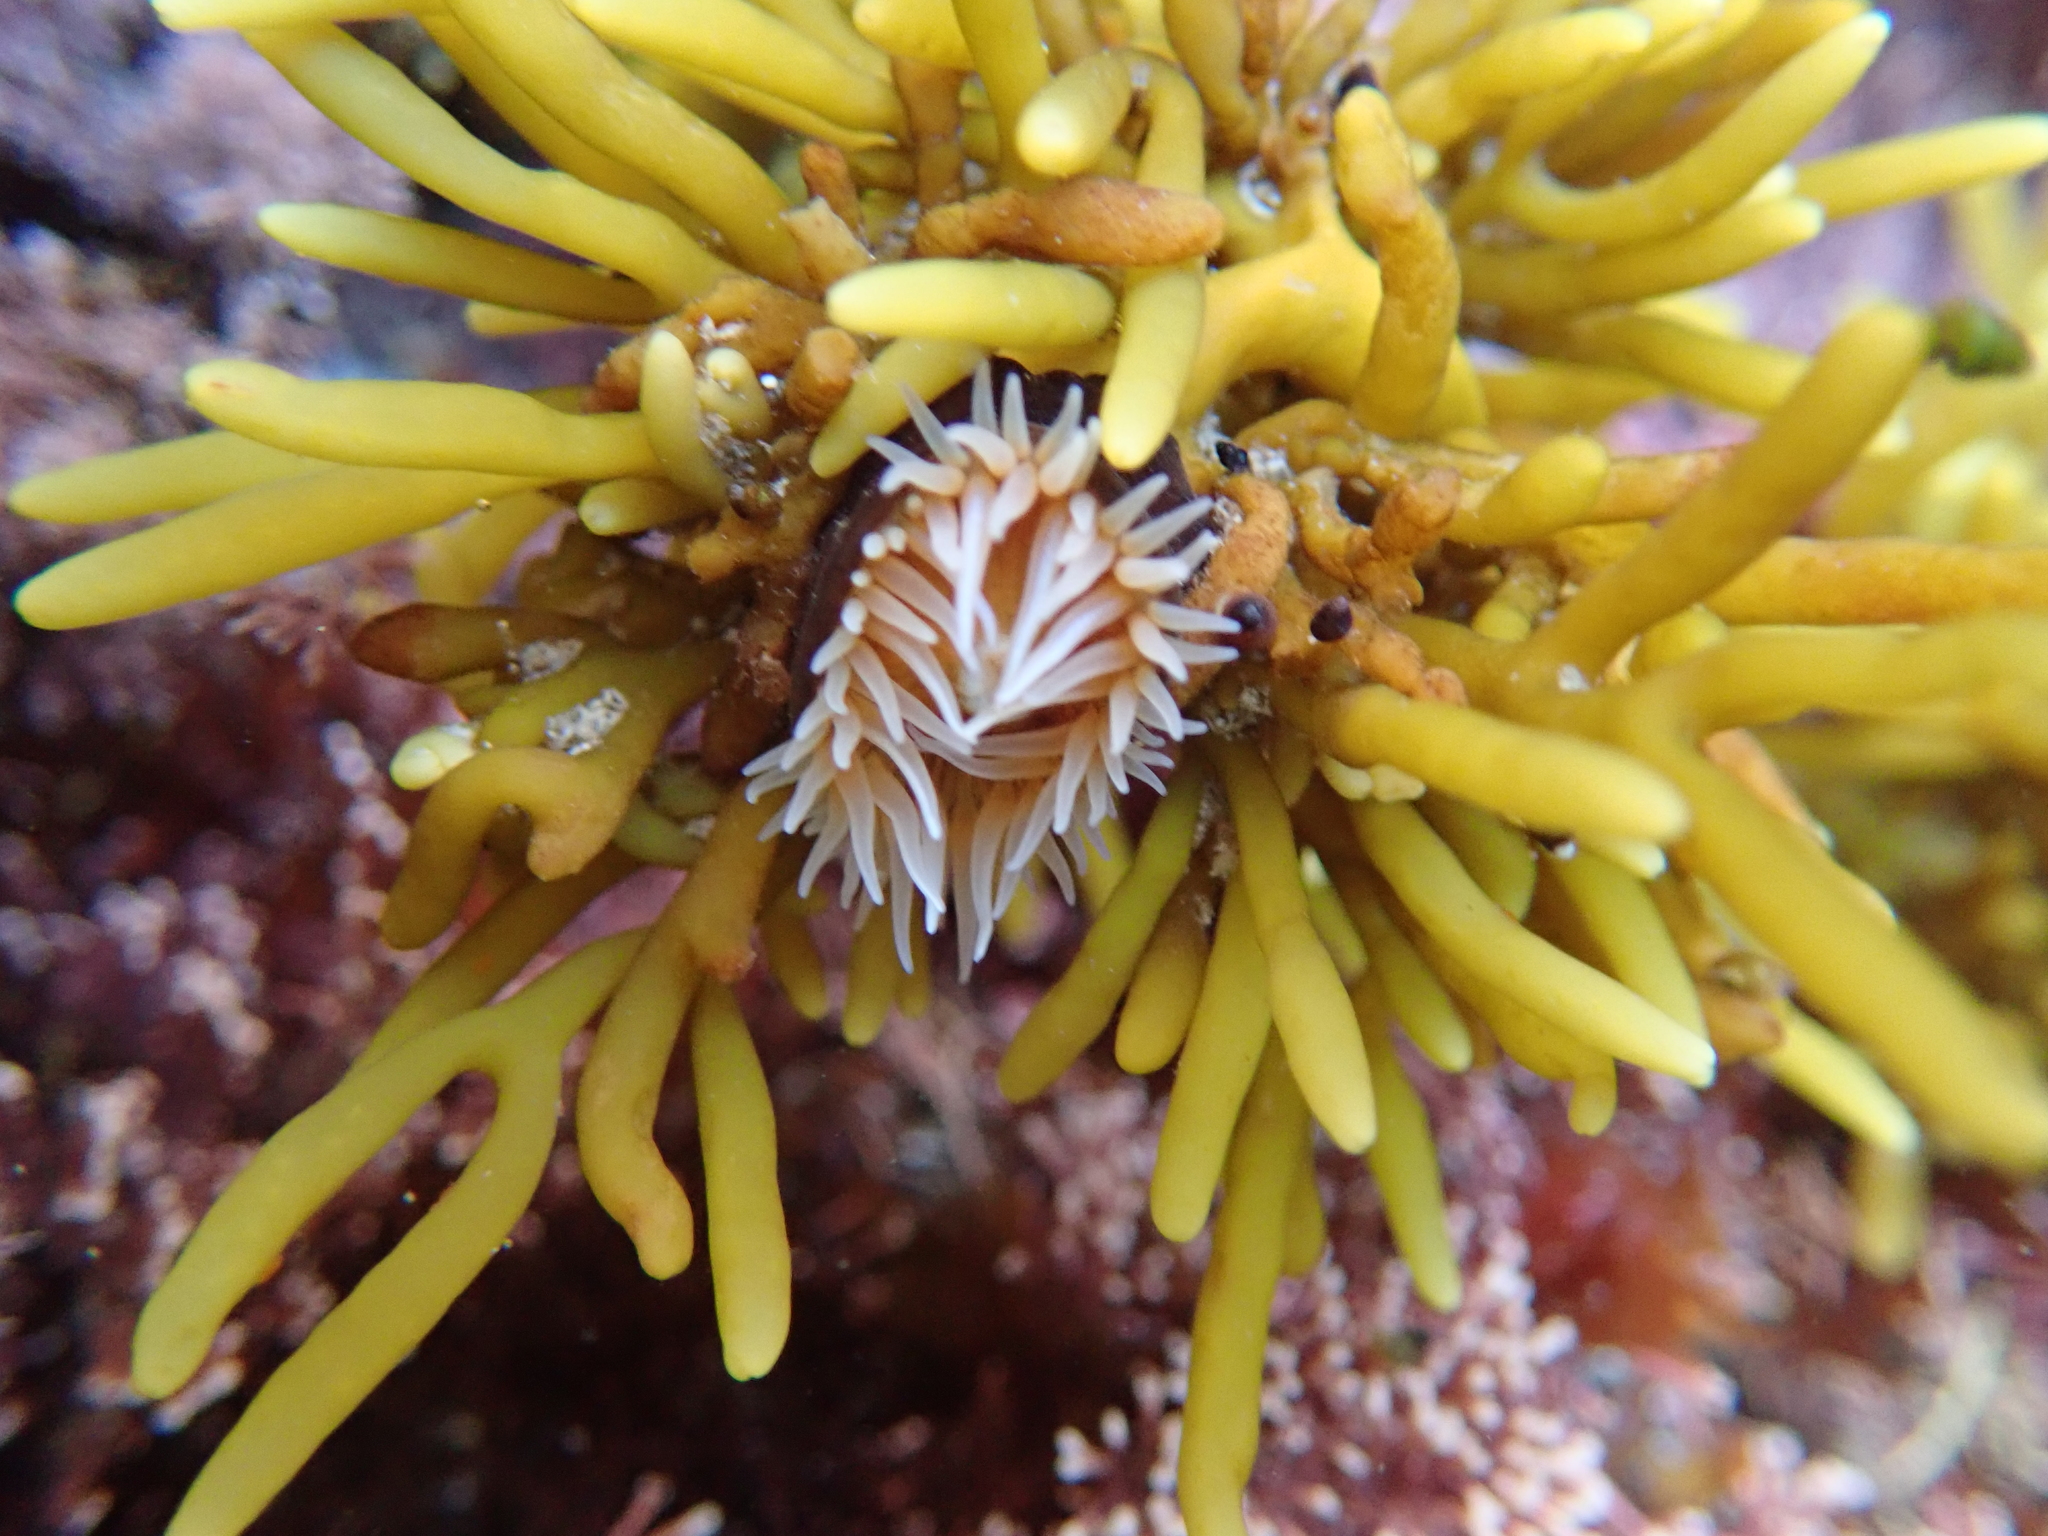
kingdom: Animalia
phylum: Cnidaria
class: Anthozoa
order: Actiniaria
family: Hormathiidae
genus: Handactis
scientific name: Handactis nutrix
